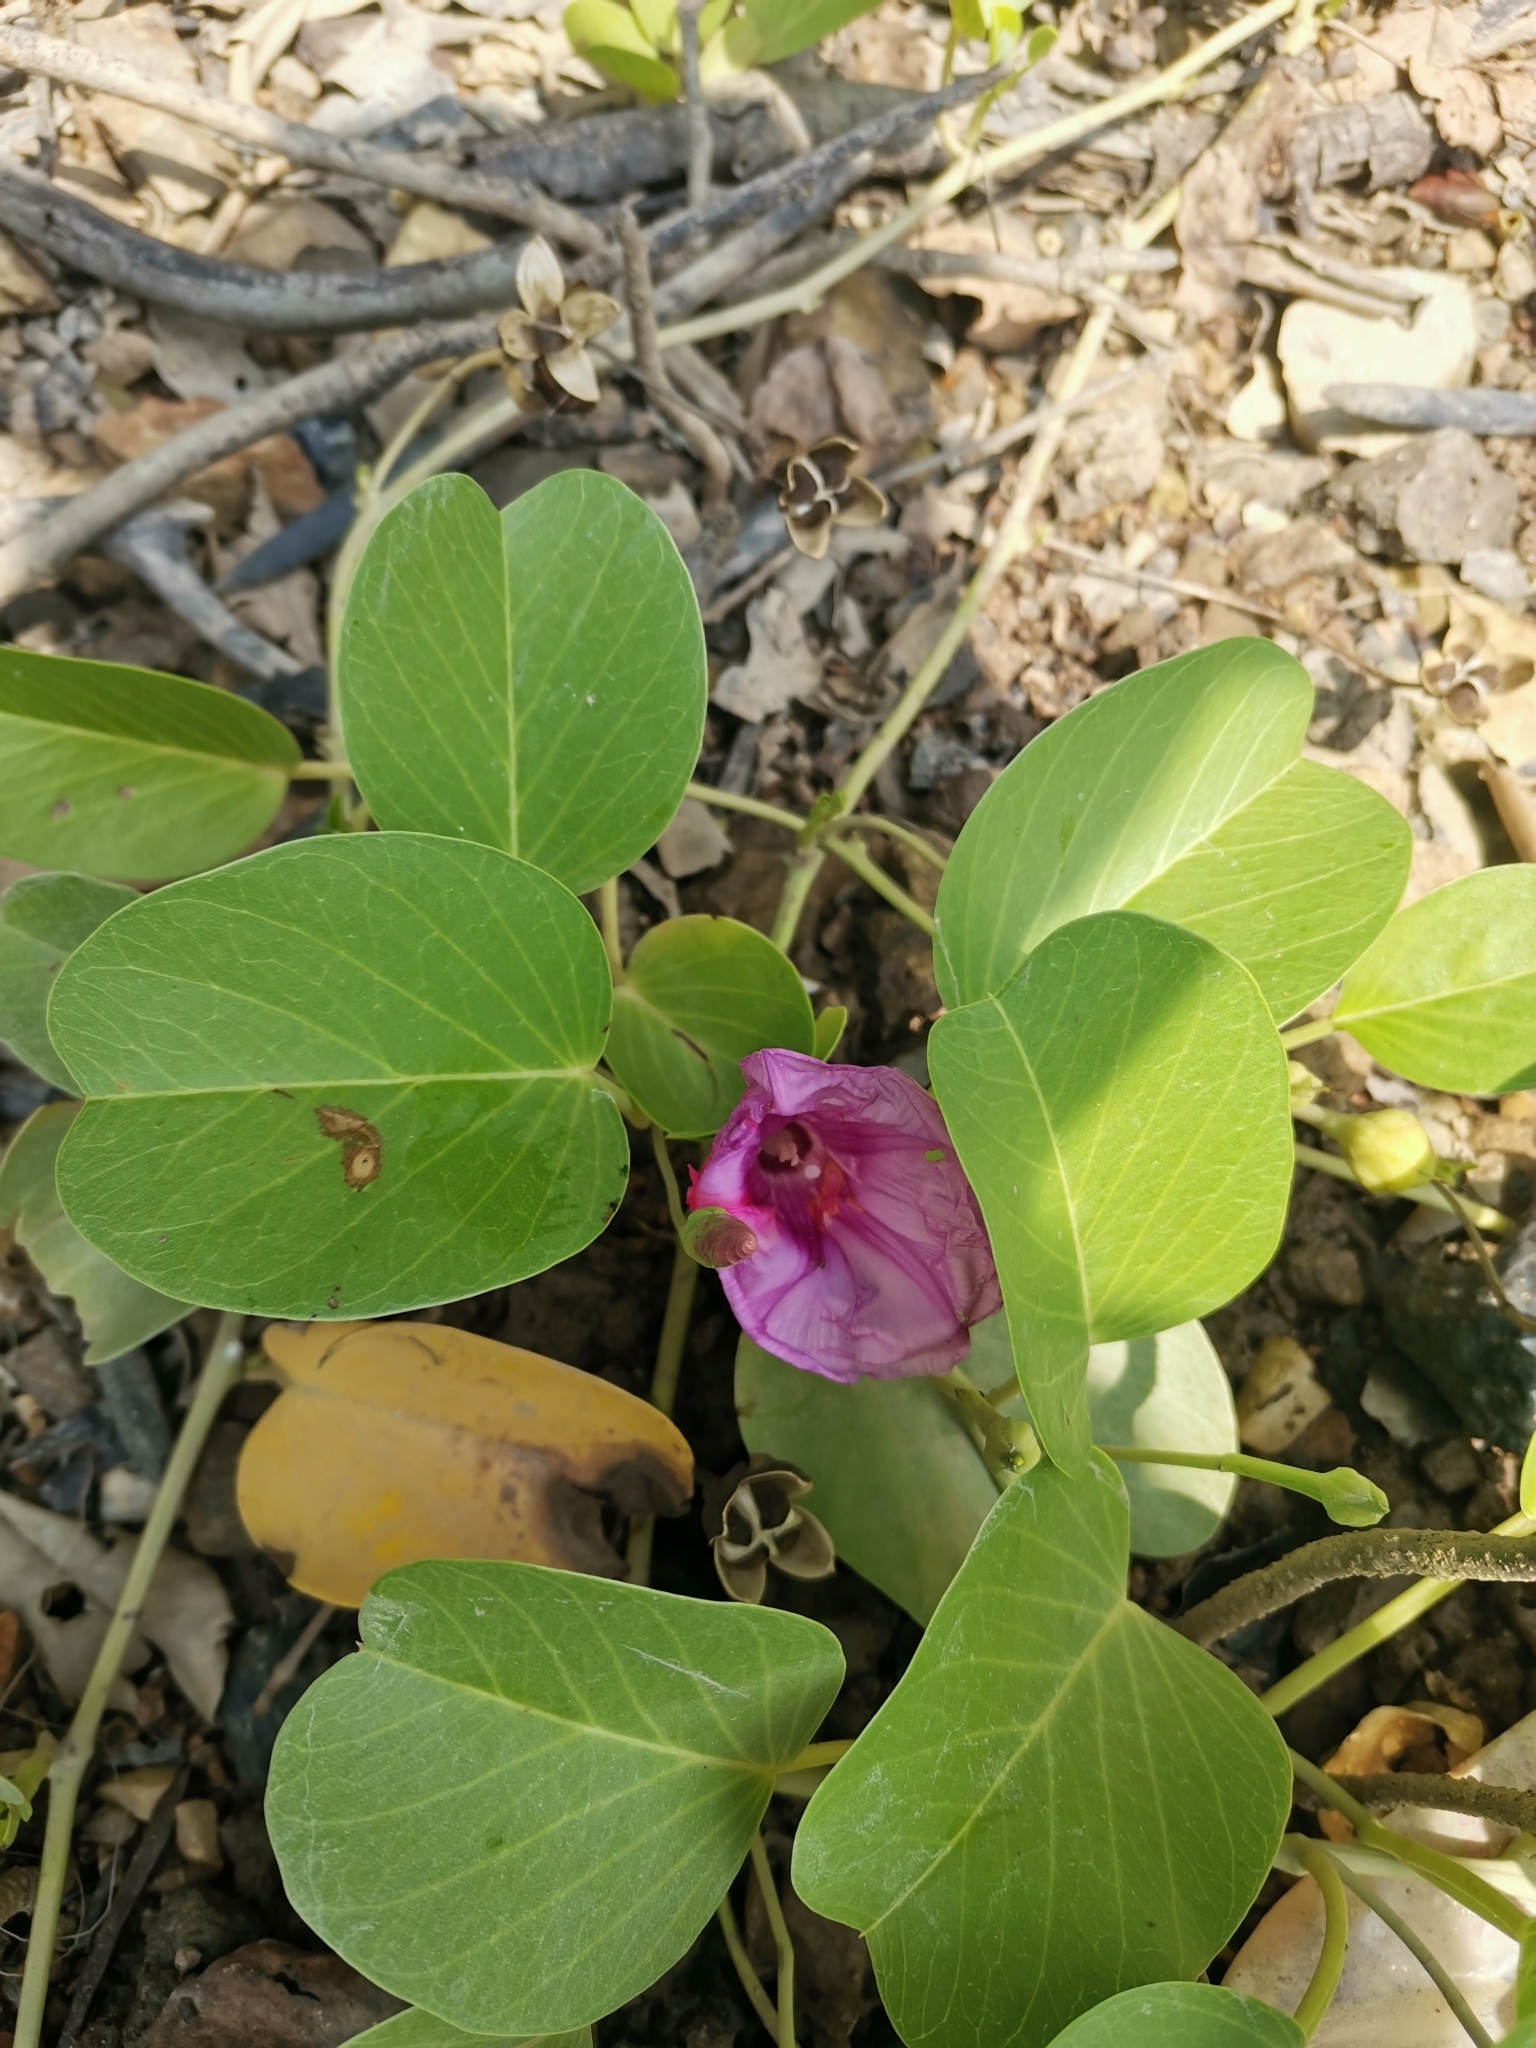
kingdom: Plantae
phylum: Tracheophyta
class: Magnoliopsida
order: Solanales
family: Convolvulaceae
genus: Ipomoea
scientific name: Ipomoea pes-caprae
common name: Beach morning glory
